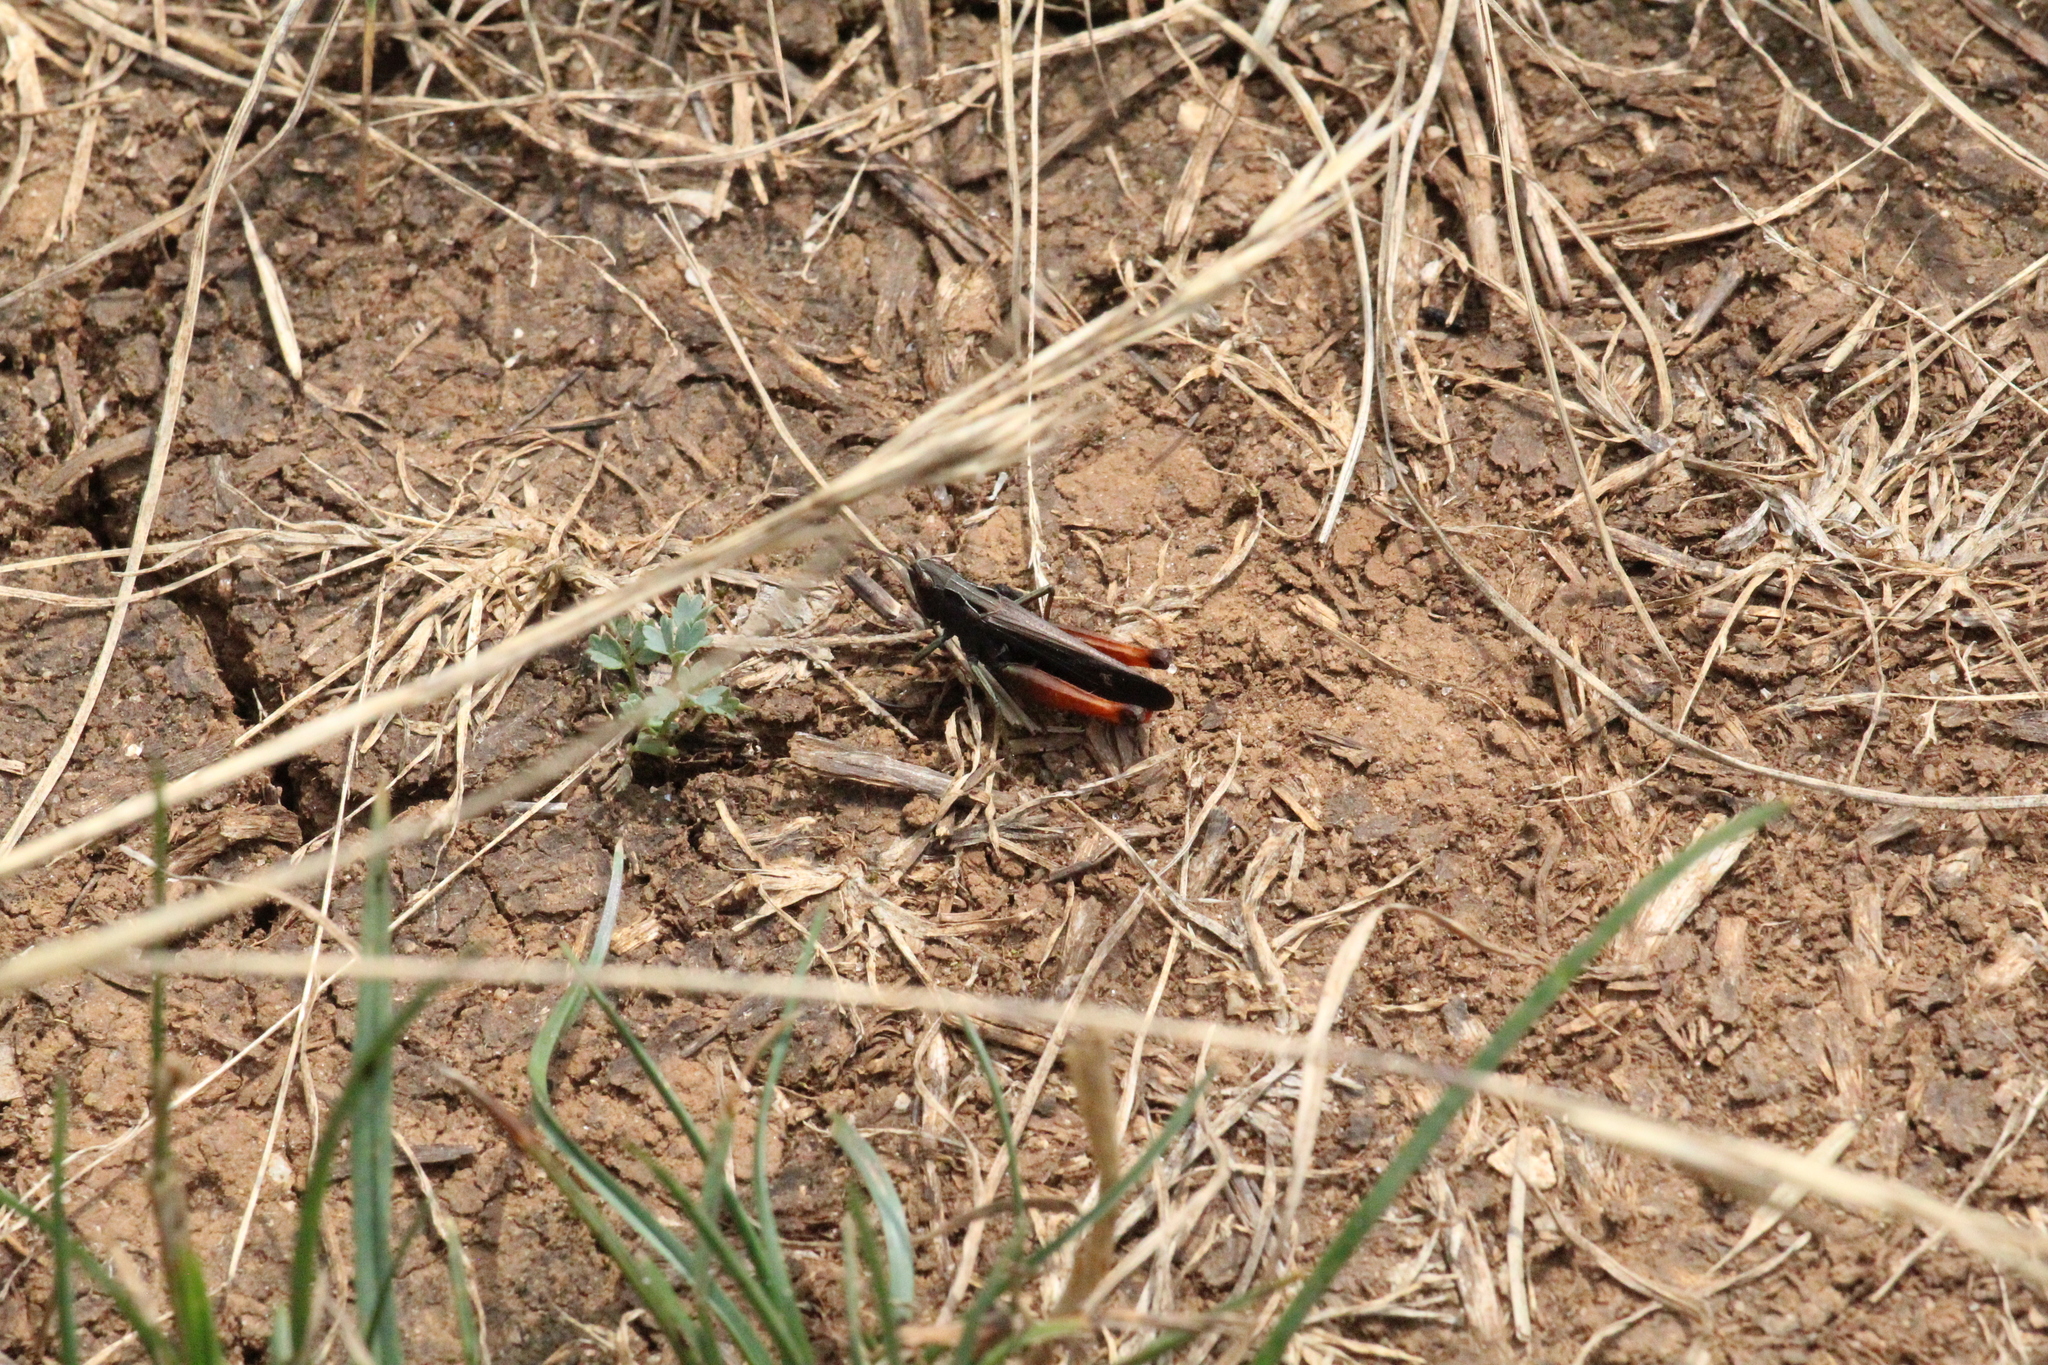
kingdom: Animalia
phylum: Arthropoda
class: Insecta
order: Orthoptera
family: Acrididae
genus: Omocestus
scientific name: Omocestus rufipes
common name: Woodland grasshopper
